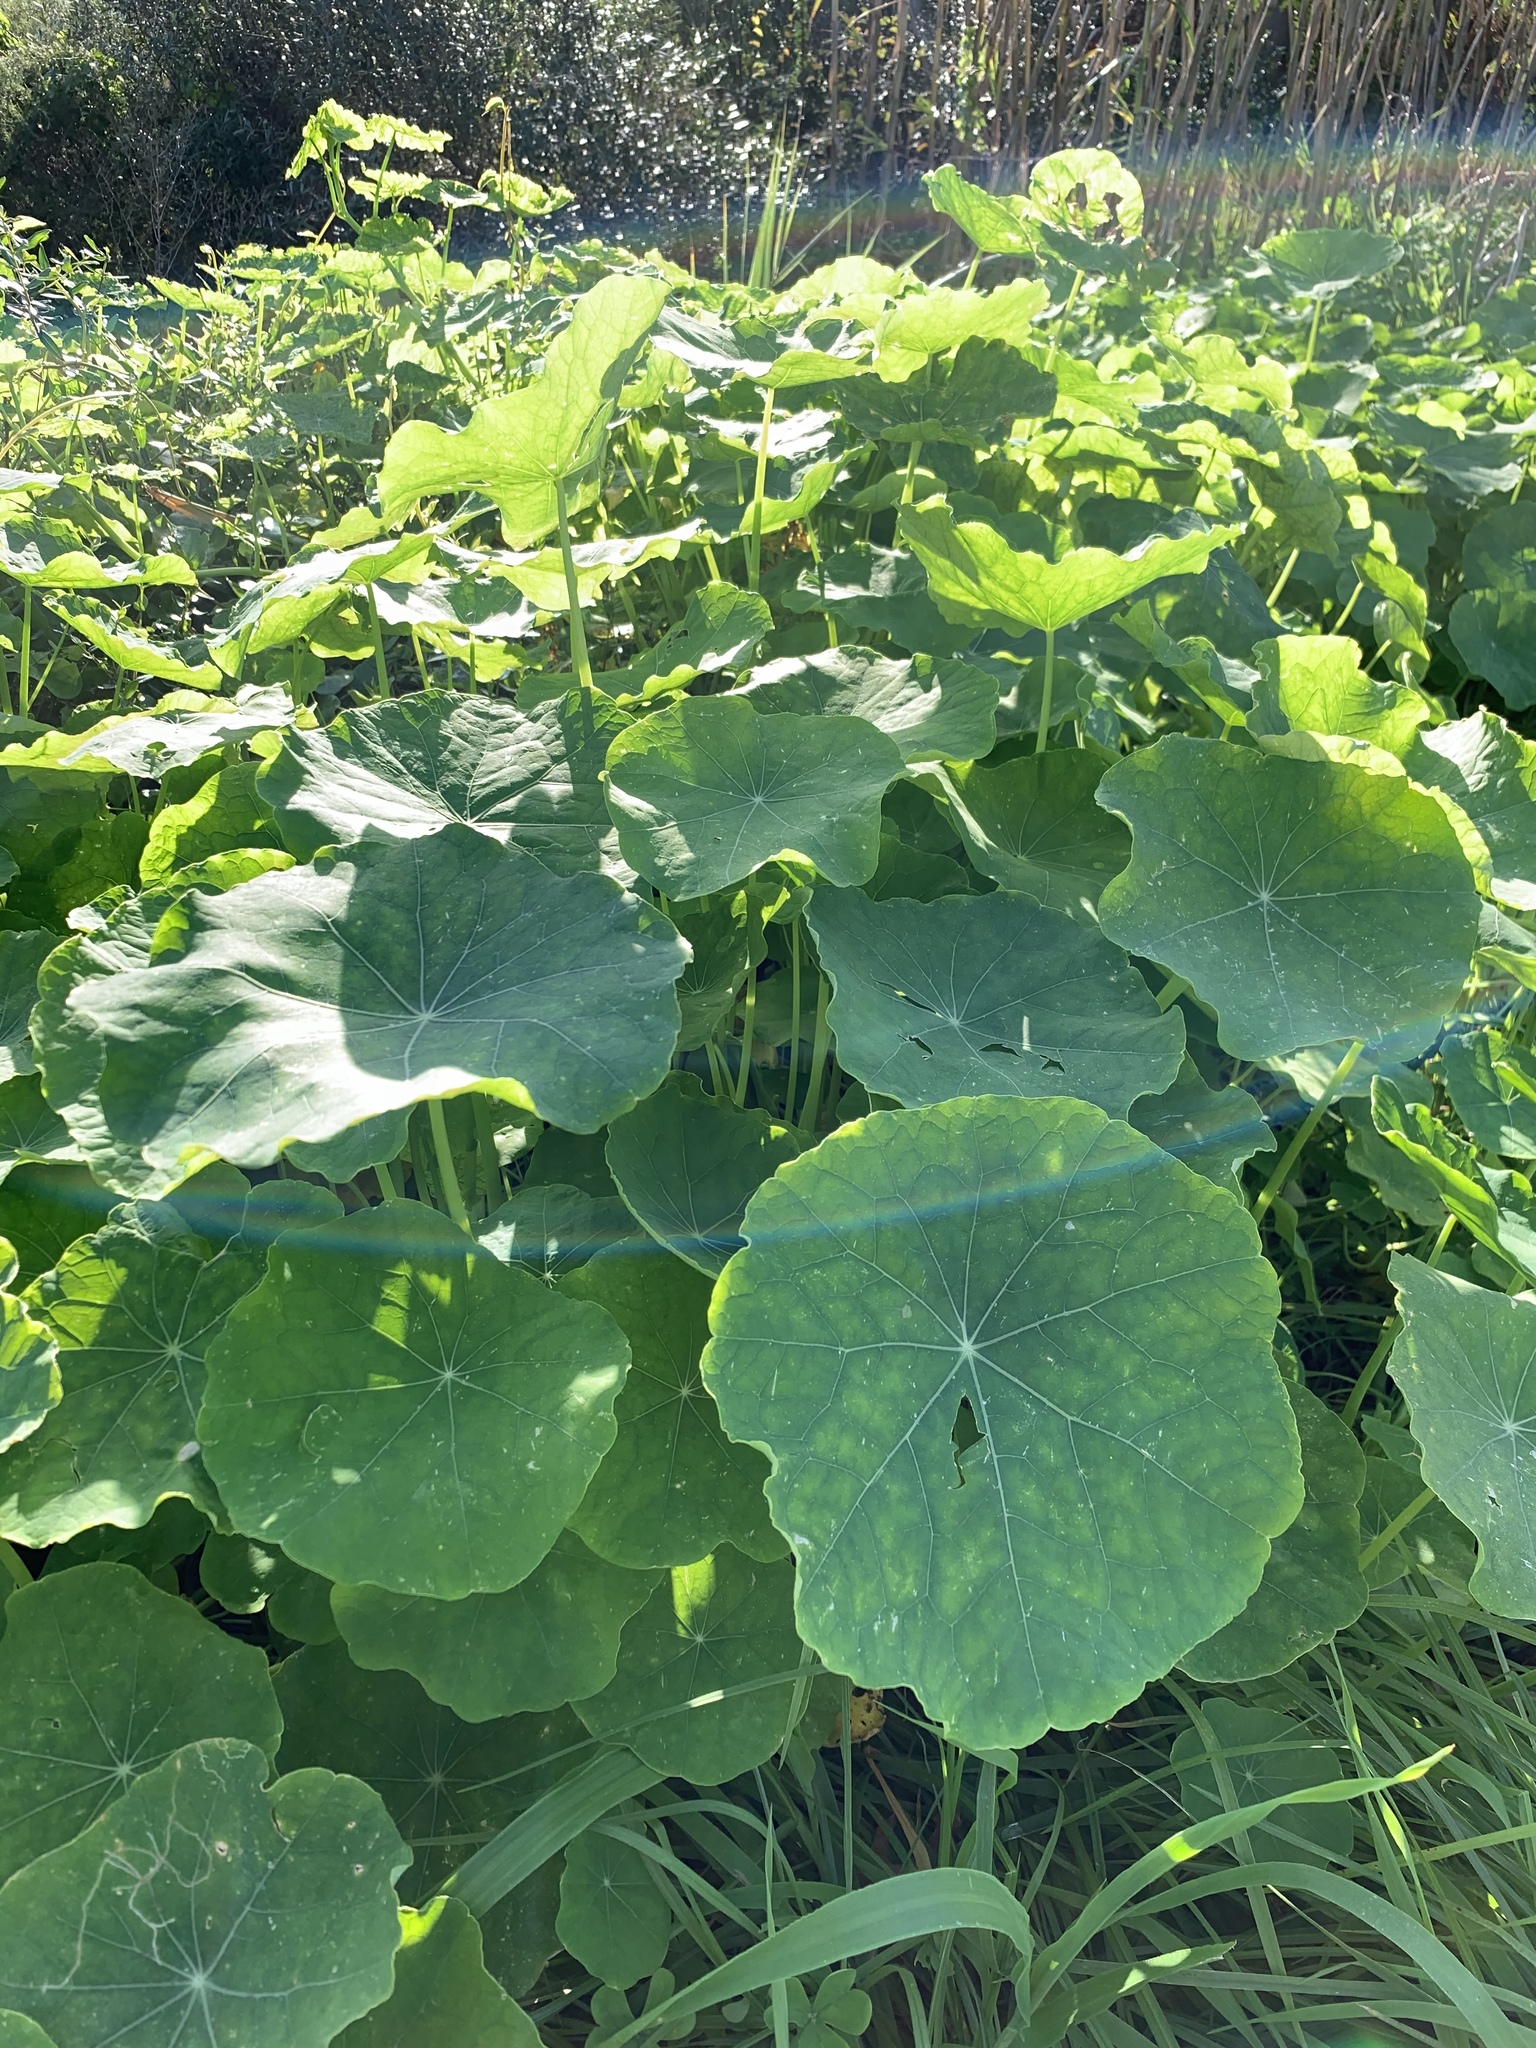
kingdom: Plantae
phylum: Tracheophyta
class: Magnoliopsida
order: Brassicales
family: Tropaeolaceae
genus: Tropaeolum
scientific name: Tropaeolum majus
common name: Nasturtium
